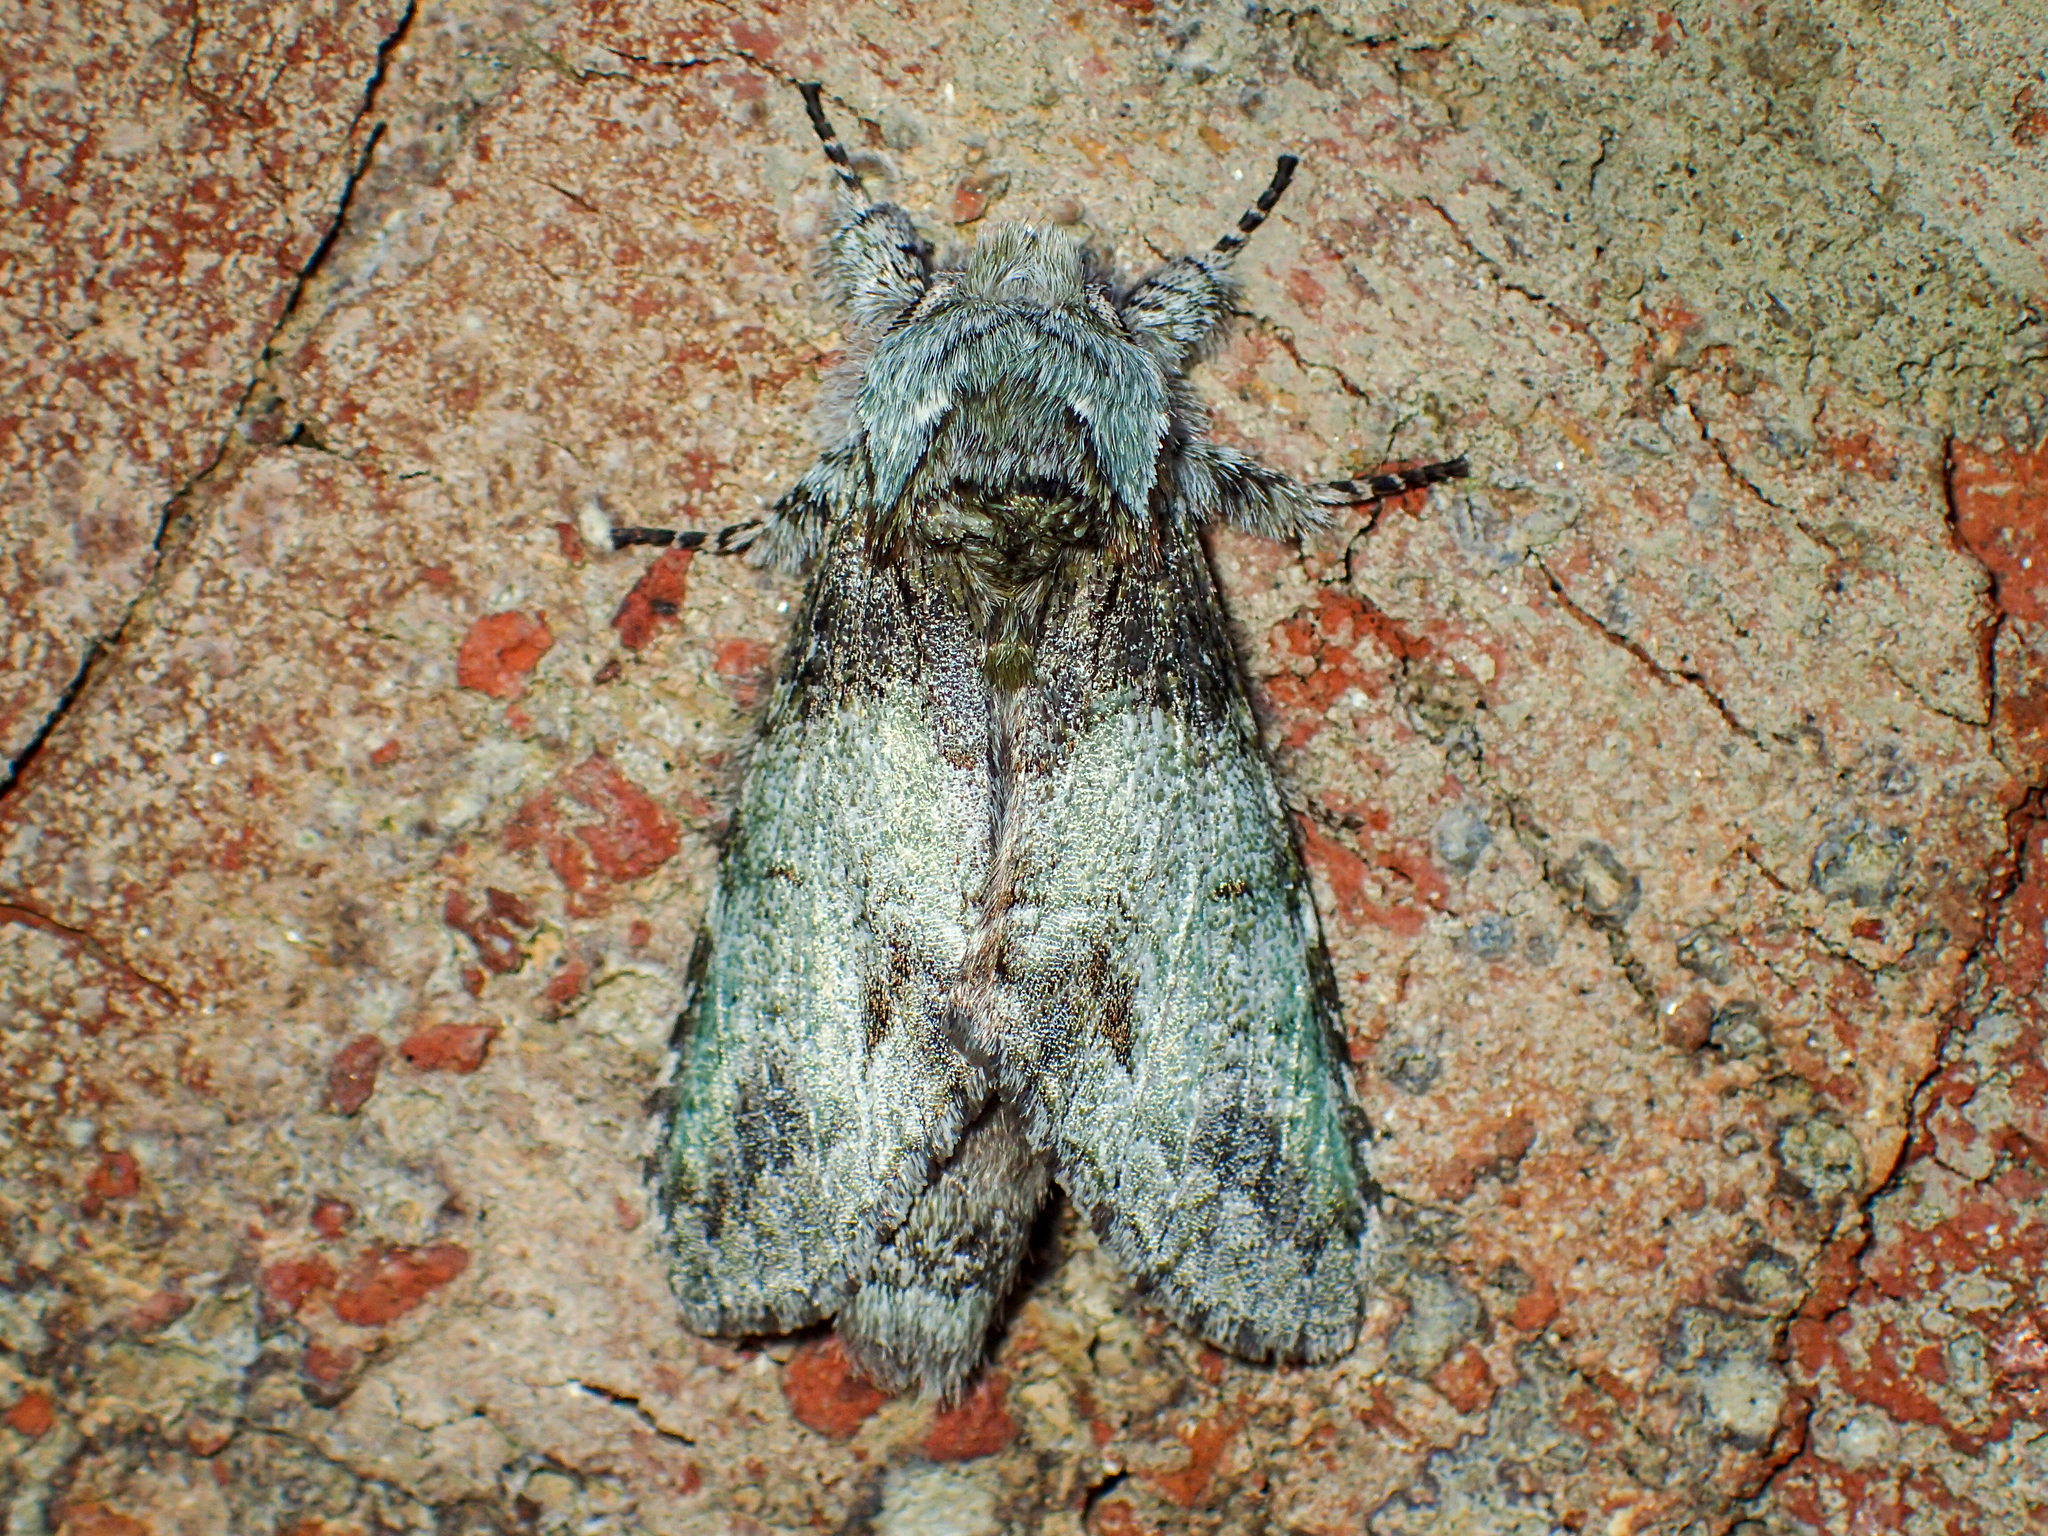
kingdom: Animalia
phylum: Arthropoda
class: Insecta
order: Lepidoptera
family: Notodontidae
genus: Macrurocampa
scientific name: Macrurocampa marthesia
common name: Mottled prominent
